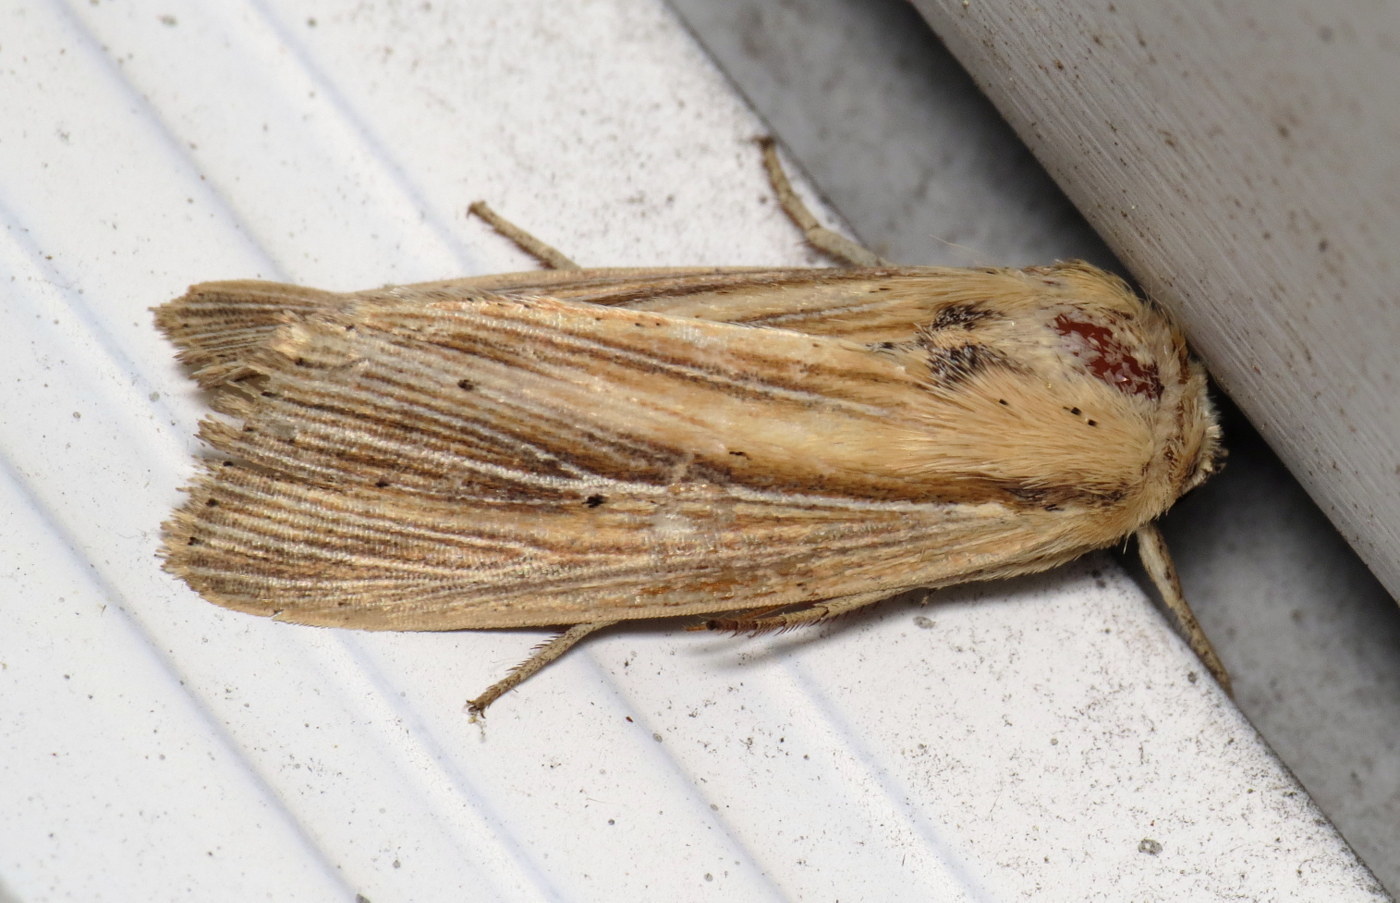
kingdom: Animalia
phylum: Arthropoda
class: Insecta
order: Lepidoptera
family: Noctuidae
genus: Leucania
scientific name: Leucania phragmitidicola
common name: Phragmites wainscot
